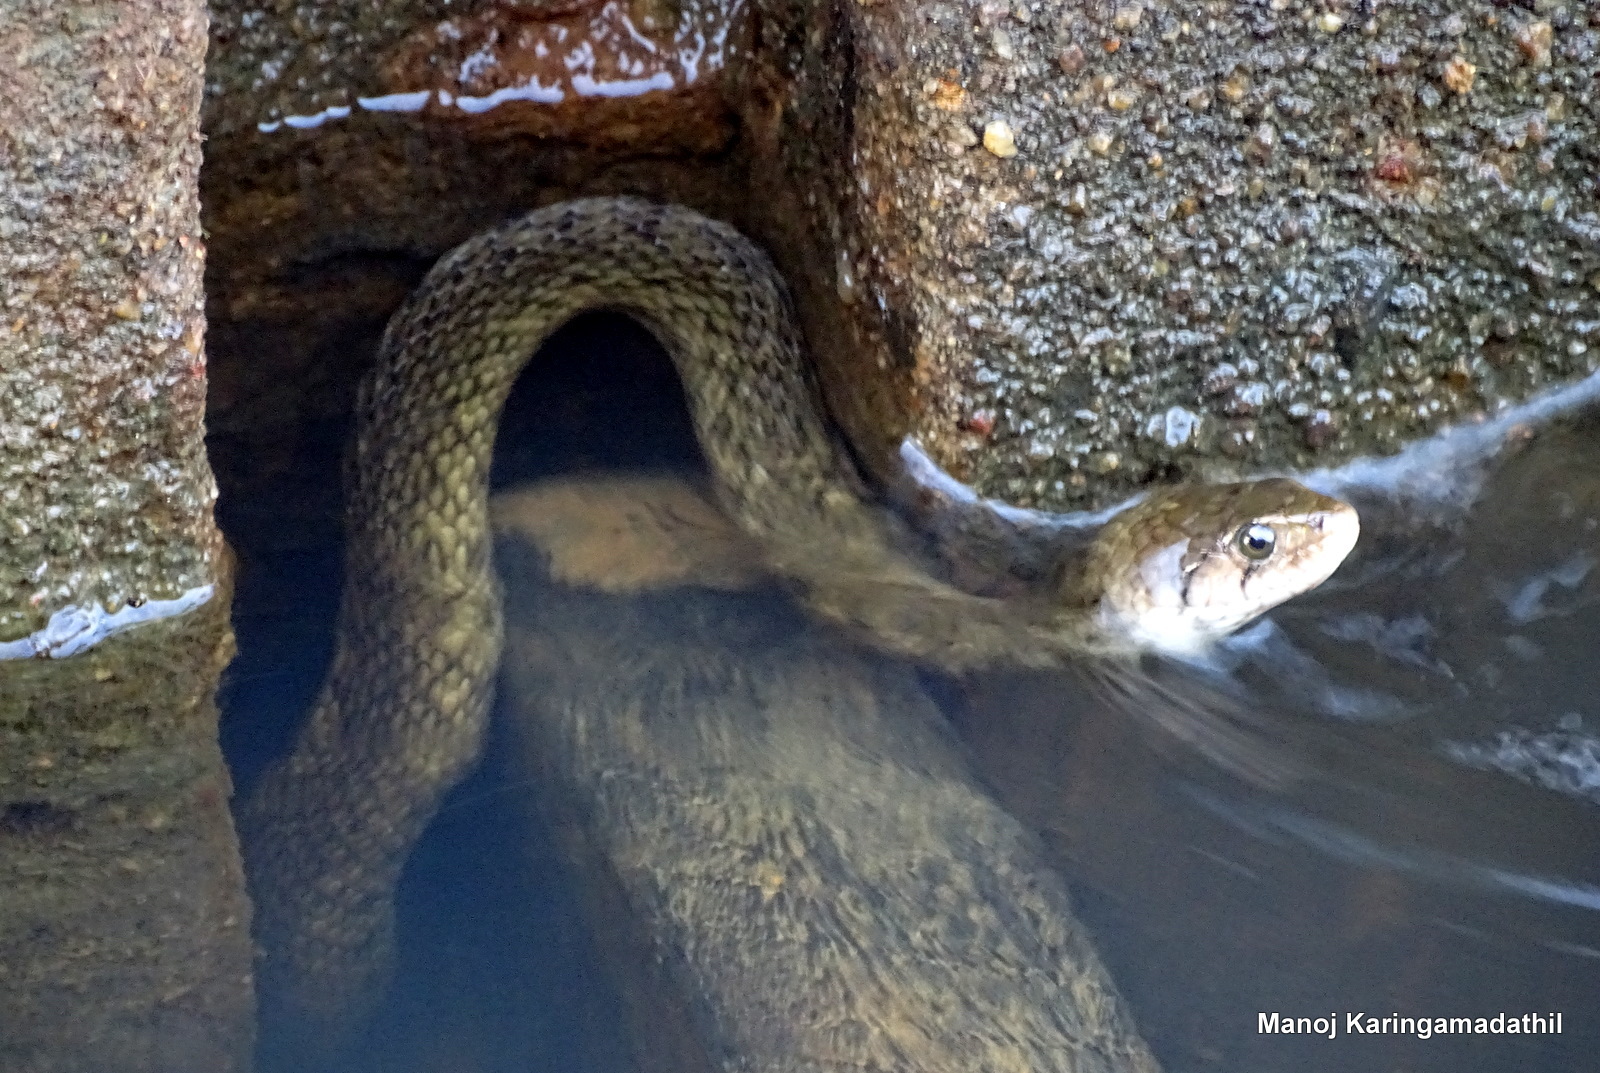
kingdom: Animalia
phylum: Chordata
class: Squamata
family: Colubridae
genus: Fowlea
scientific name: Fowlea piscator
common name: Asiatic water snake
